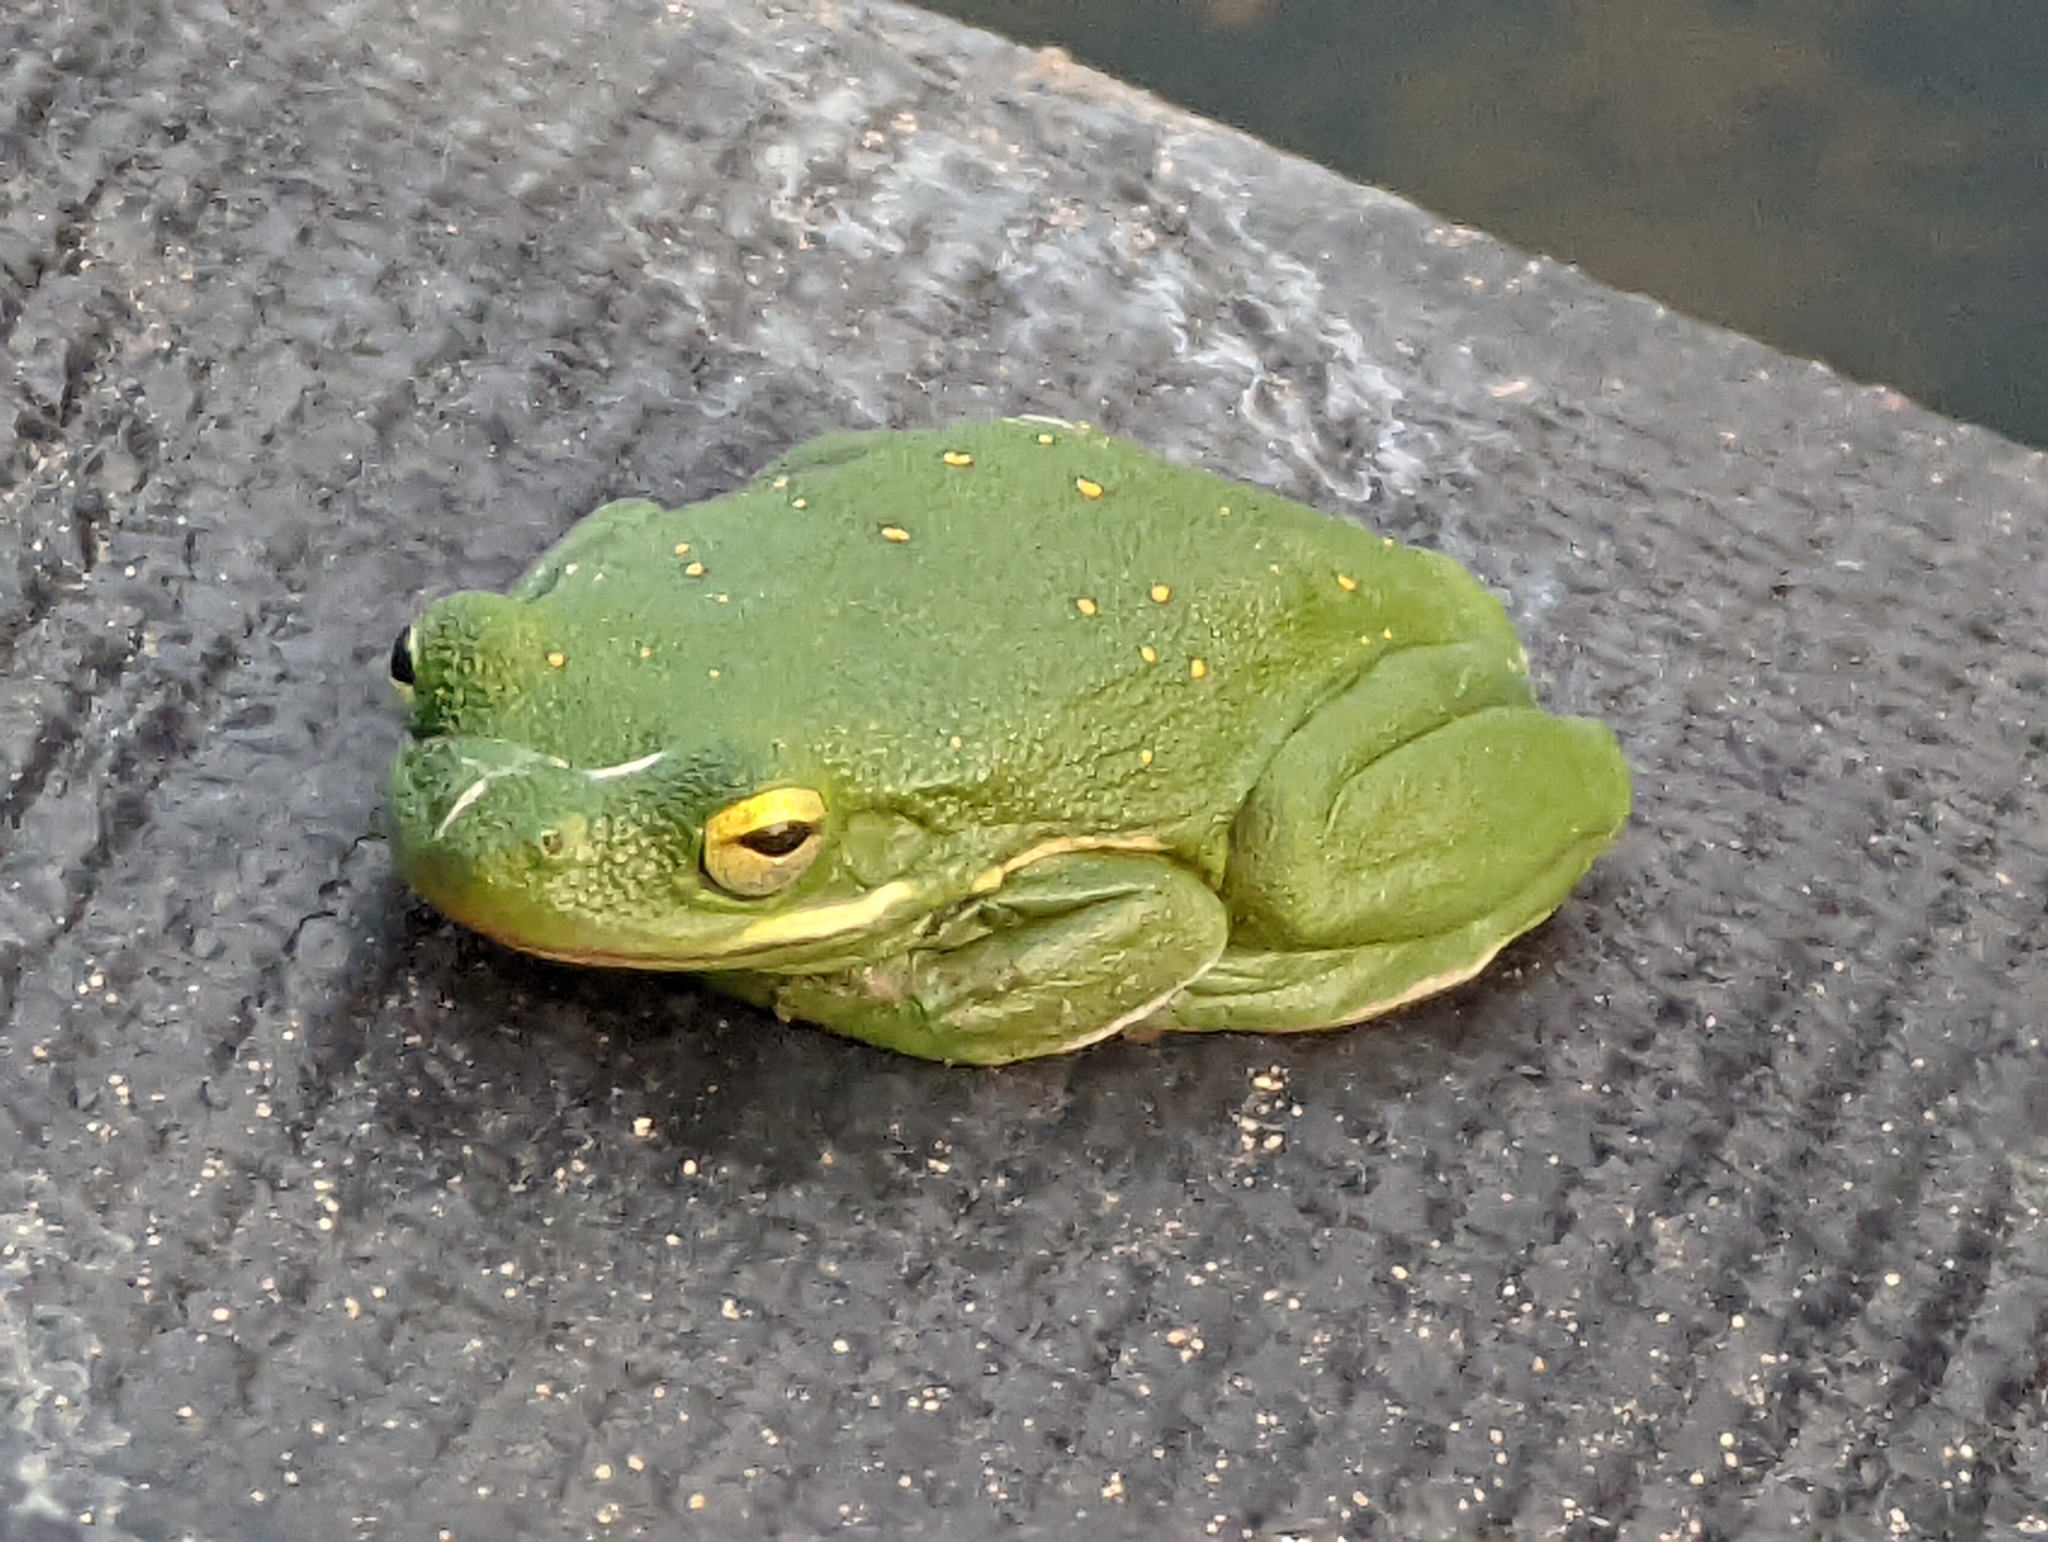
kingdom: Animalia
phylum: Chordata
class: Amphibia
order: Anura
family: Hylidae
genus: Dryophytes
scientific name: Dryophytes cinereus
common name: Green treefrog
